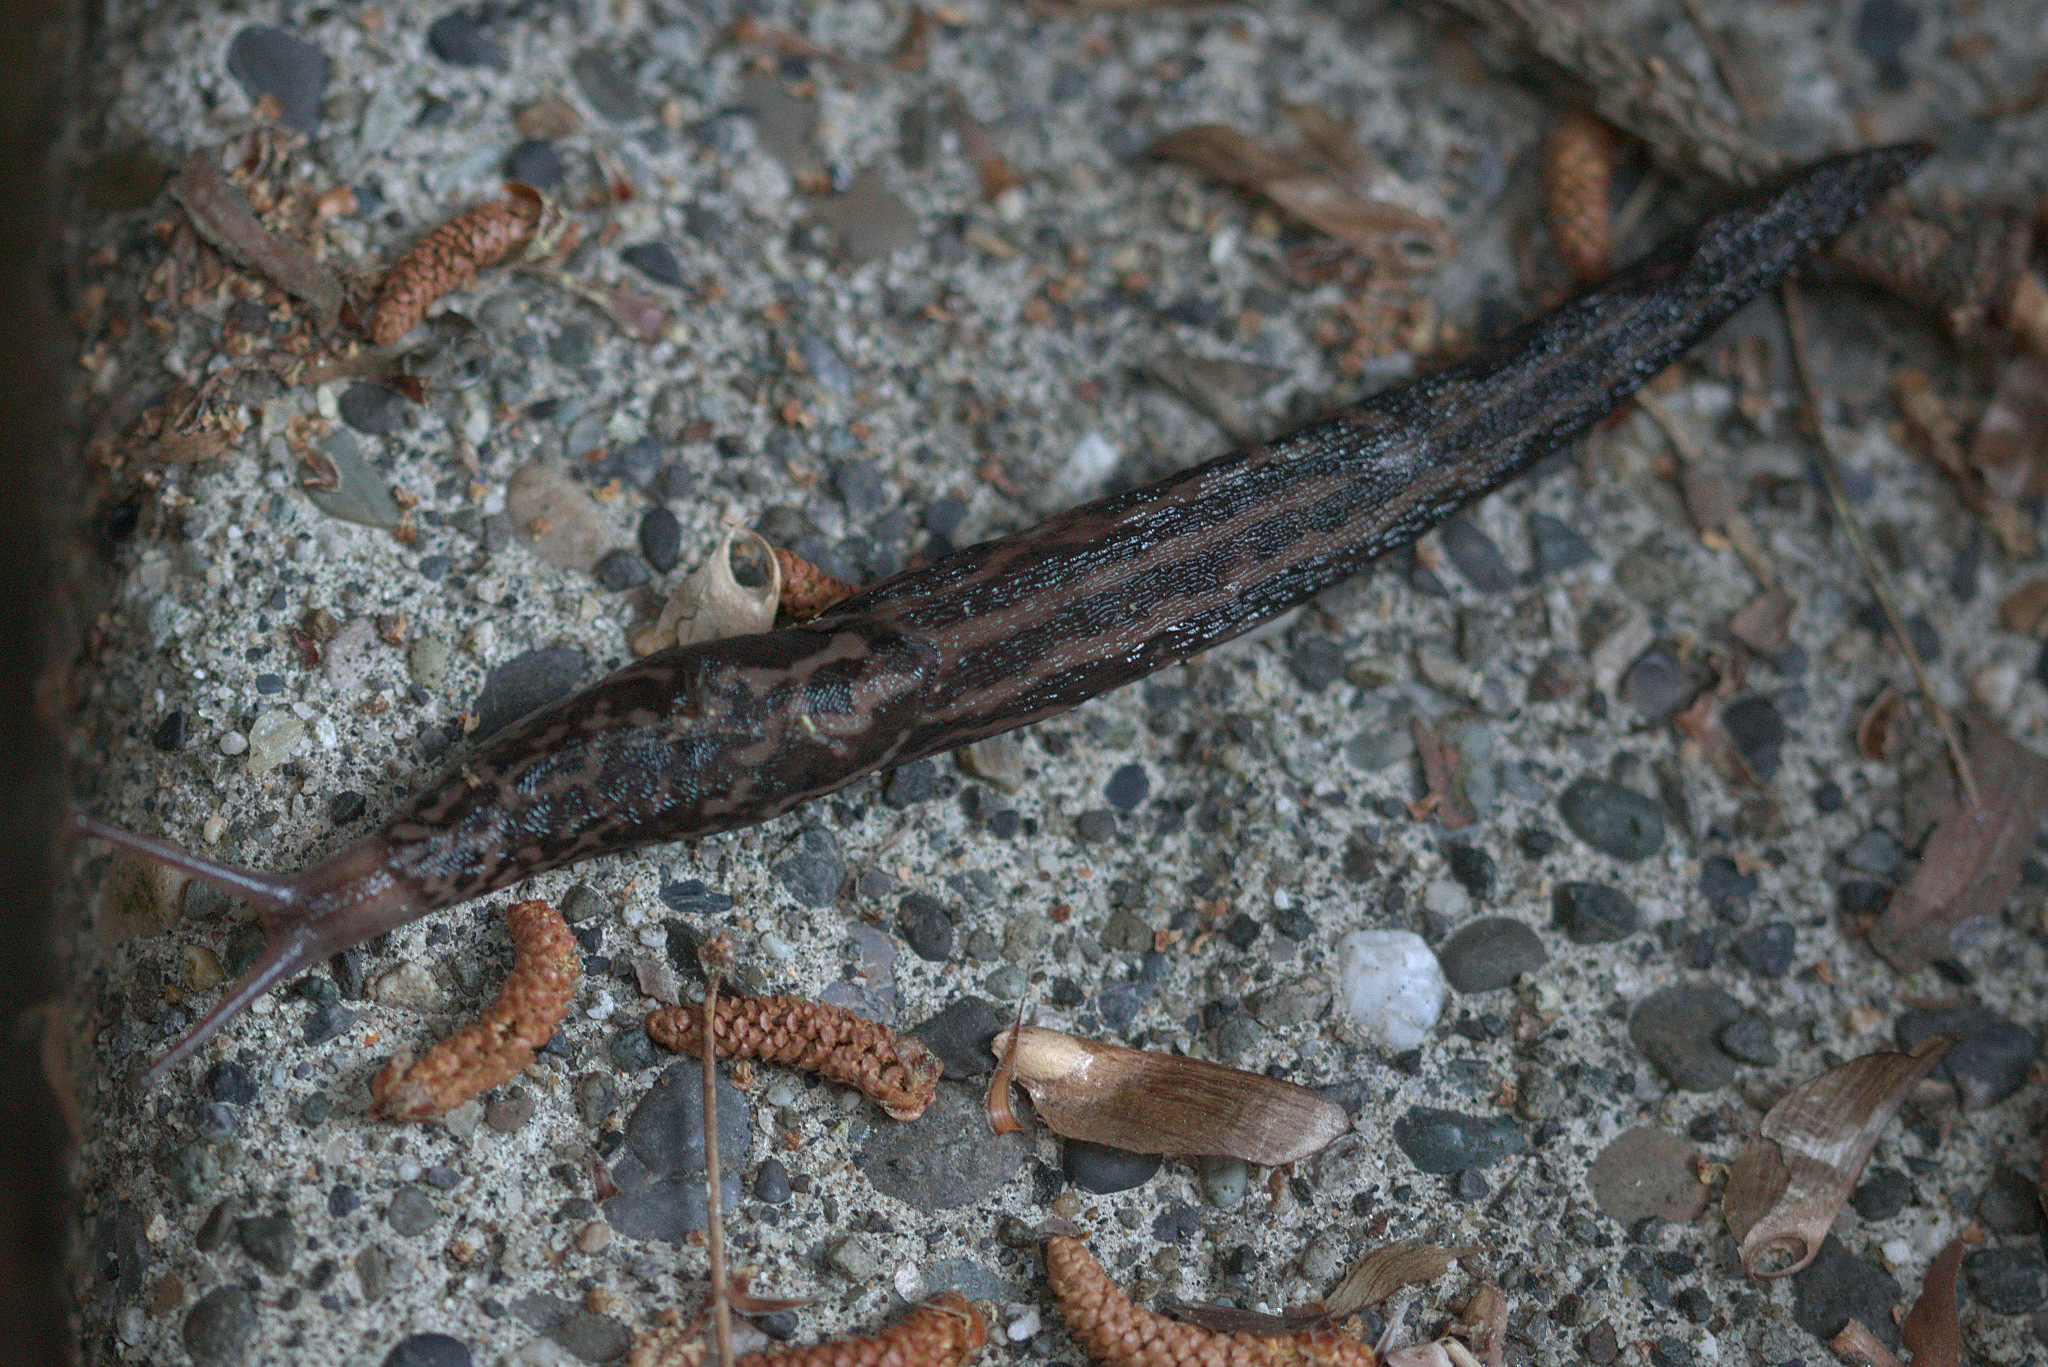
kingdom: Animalia
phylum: Mollusca
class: Gastropoda
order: Stylommatophora
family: Limacidae
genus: Limax
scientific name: Limax maximus
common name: Great grey slug
